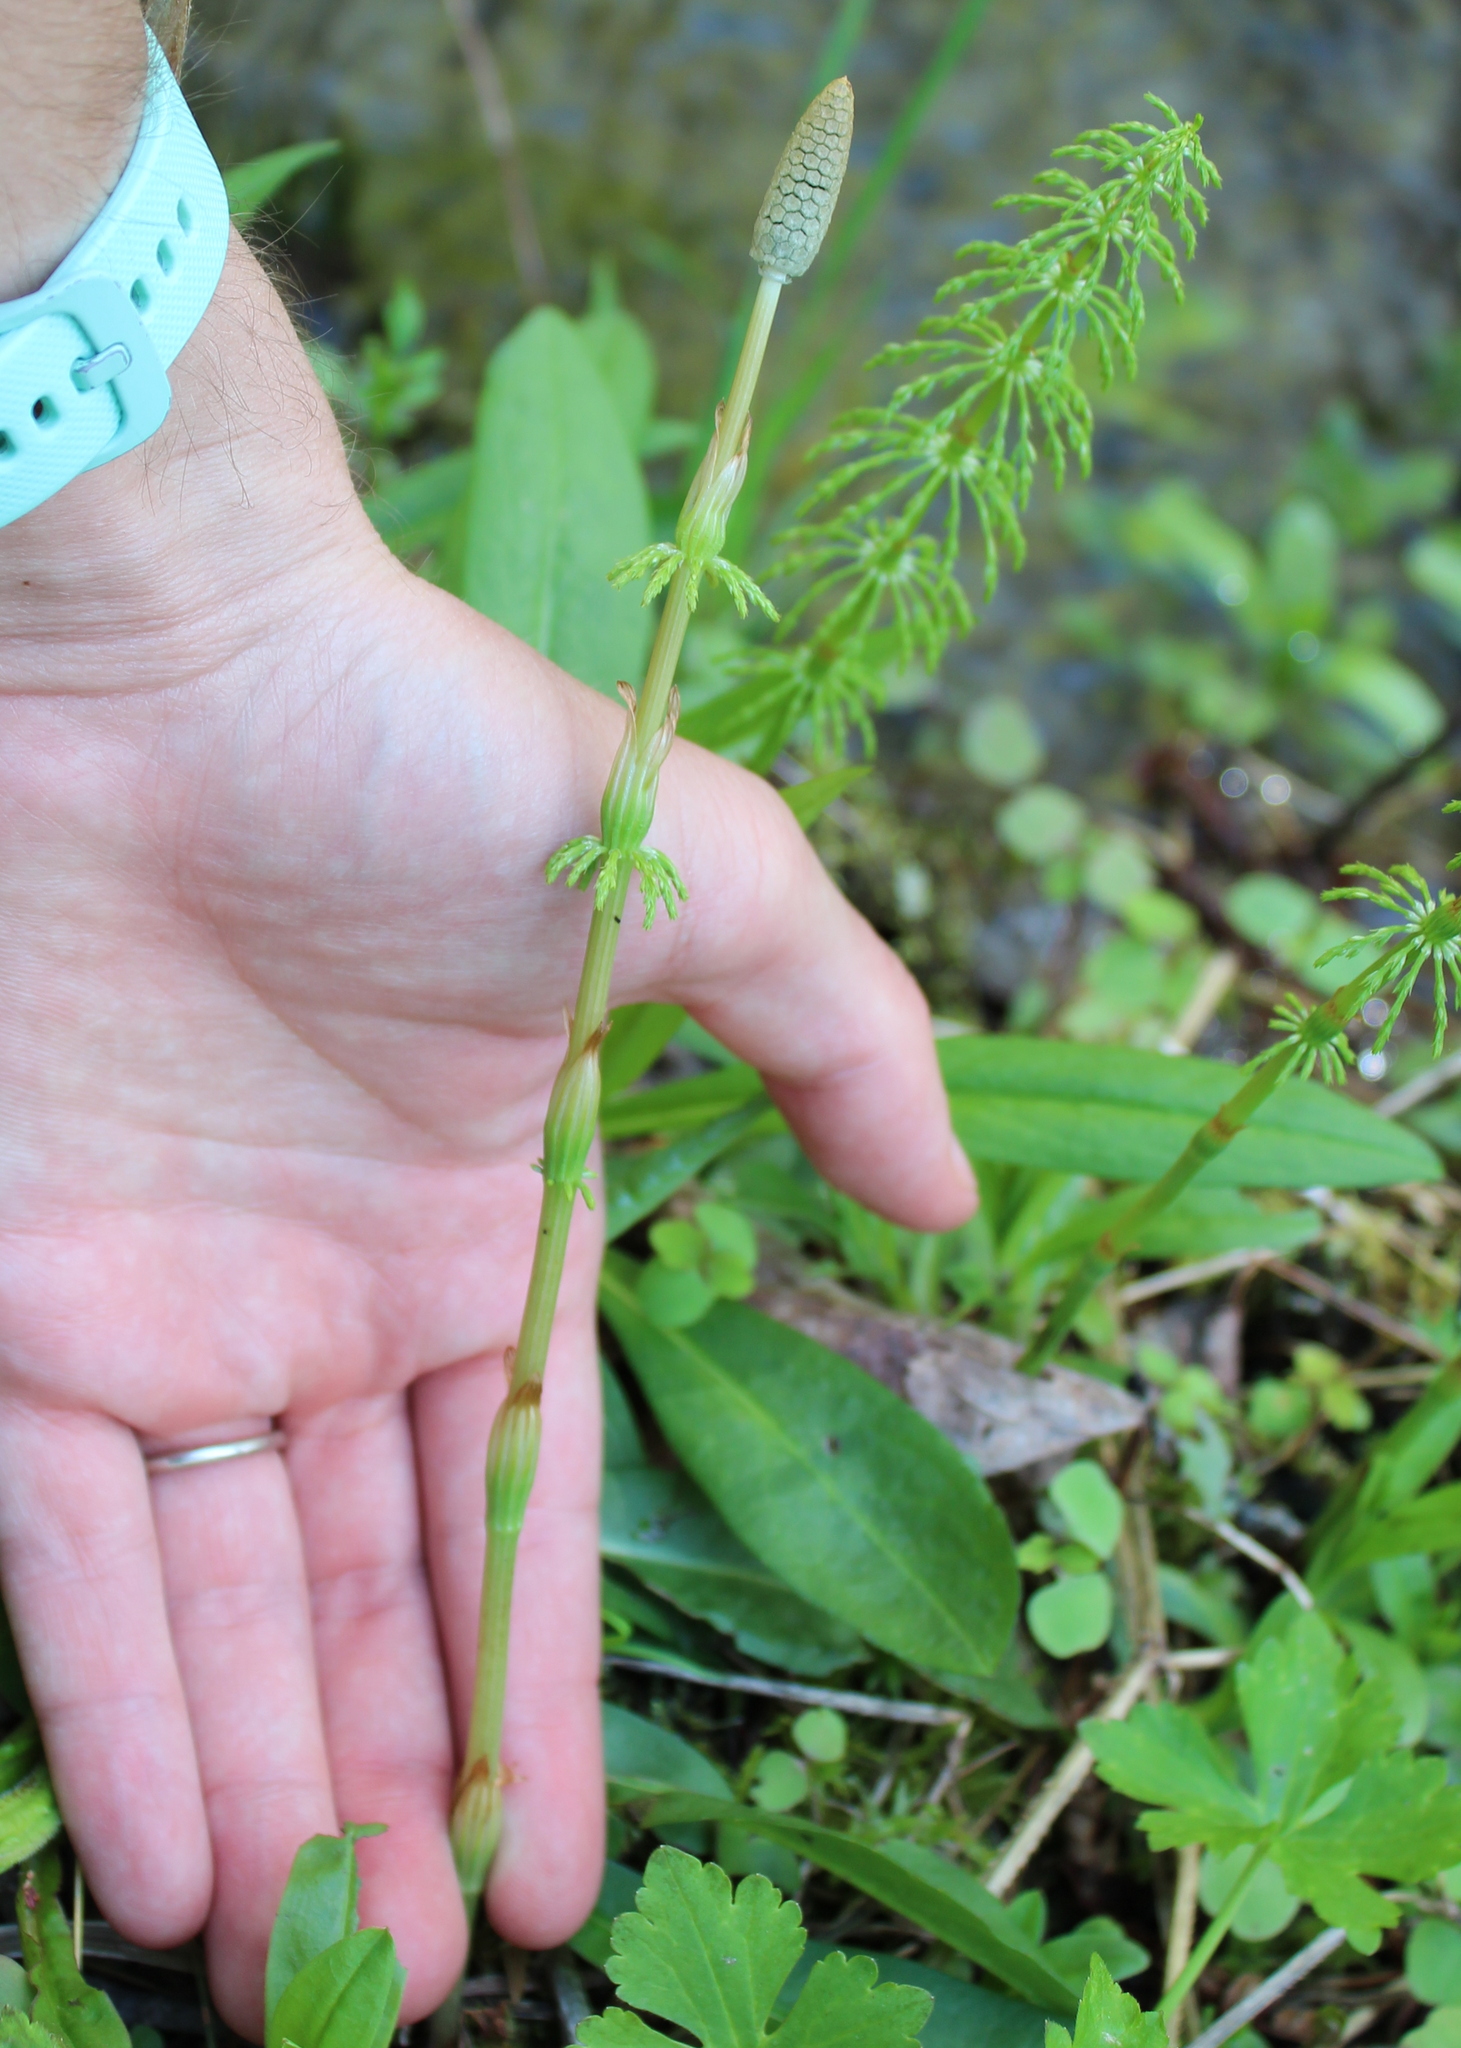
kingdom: Plantae
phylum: Tracheophyta
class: Polypodiopsida
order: Equisetales
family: Equisetaceae
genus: Equisetum
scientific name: Equisetum sylvaticum
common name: Wood horsetail
